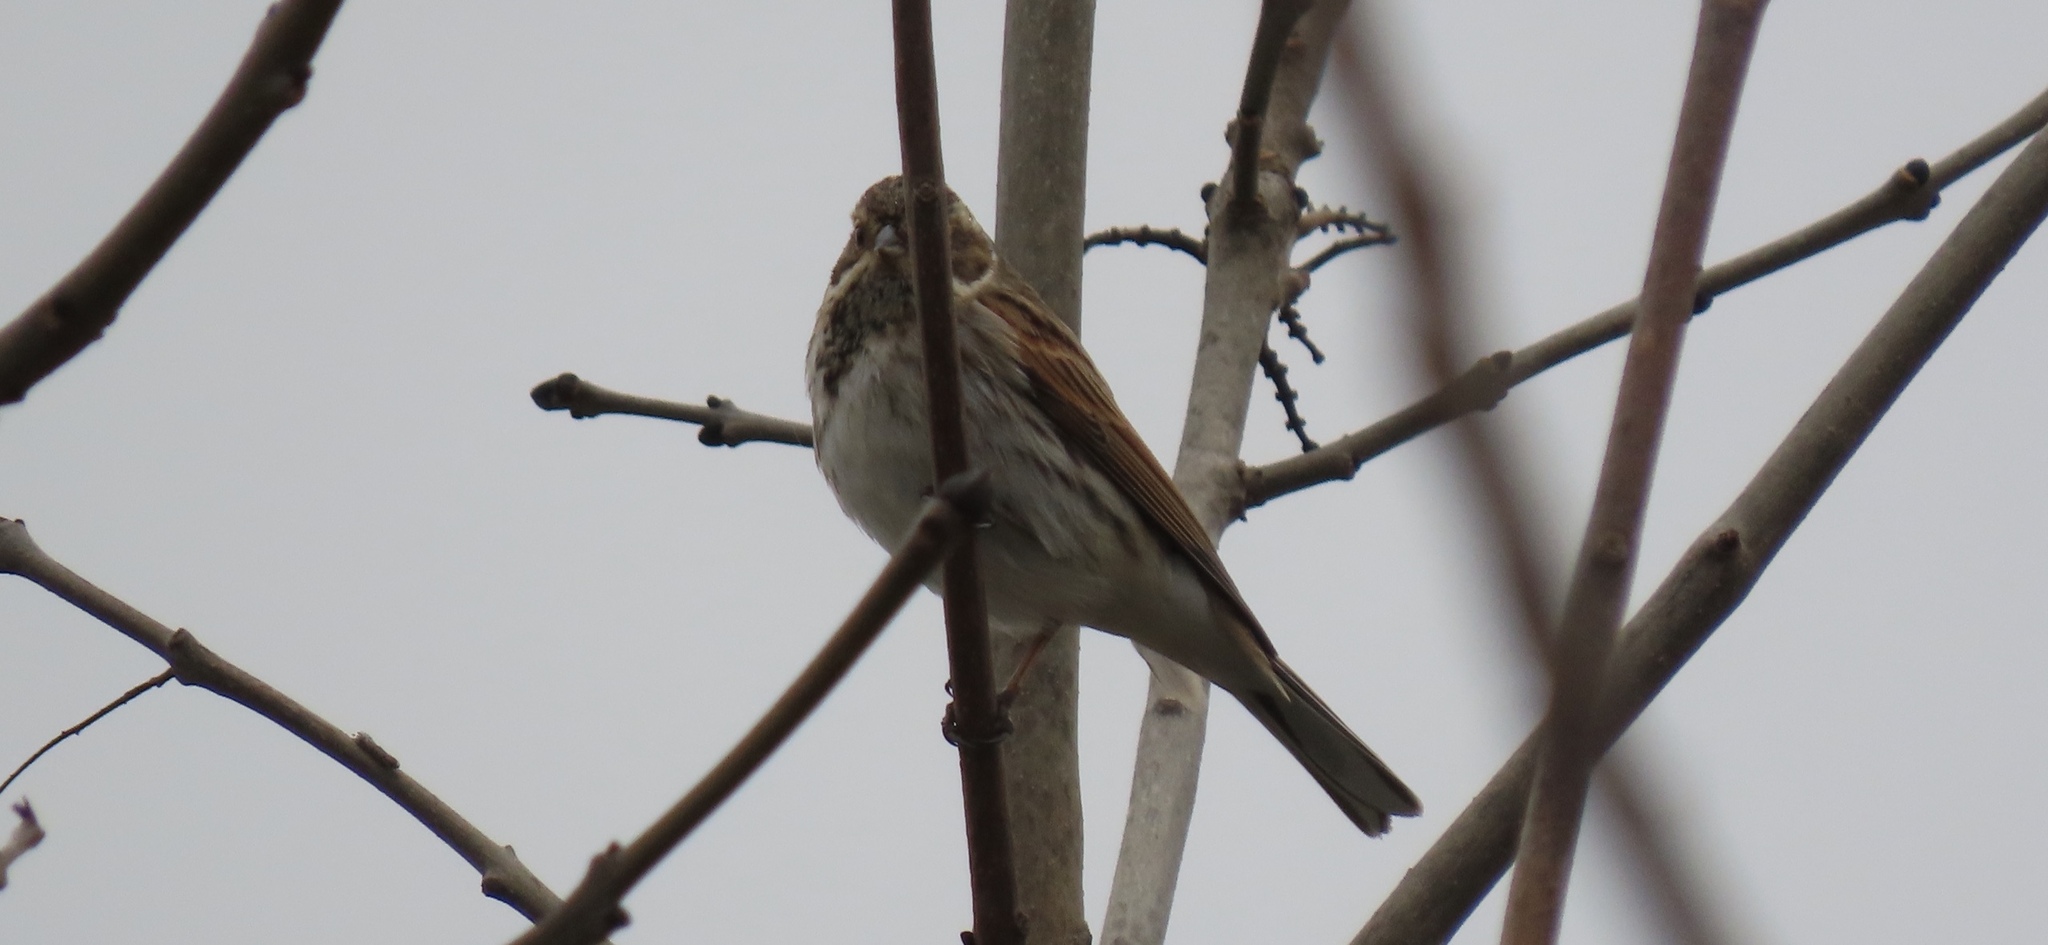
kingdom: Animalia
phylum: Chordata
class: Aves
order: Passeriformes
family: Emberizidae
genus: Emberiza
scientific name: Emberiza schoeniclus
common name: Reed bunting
